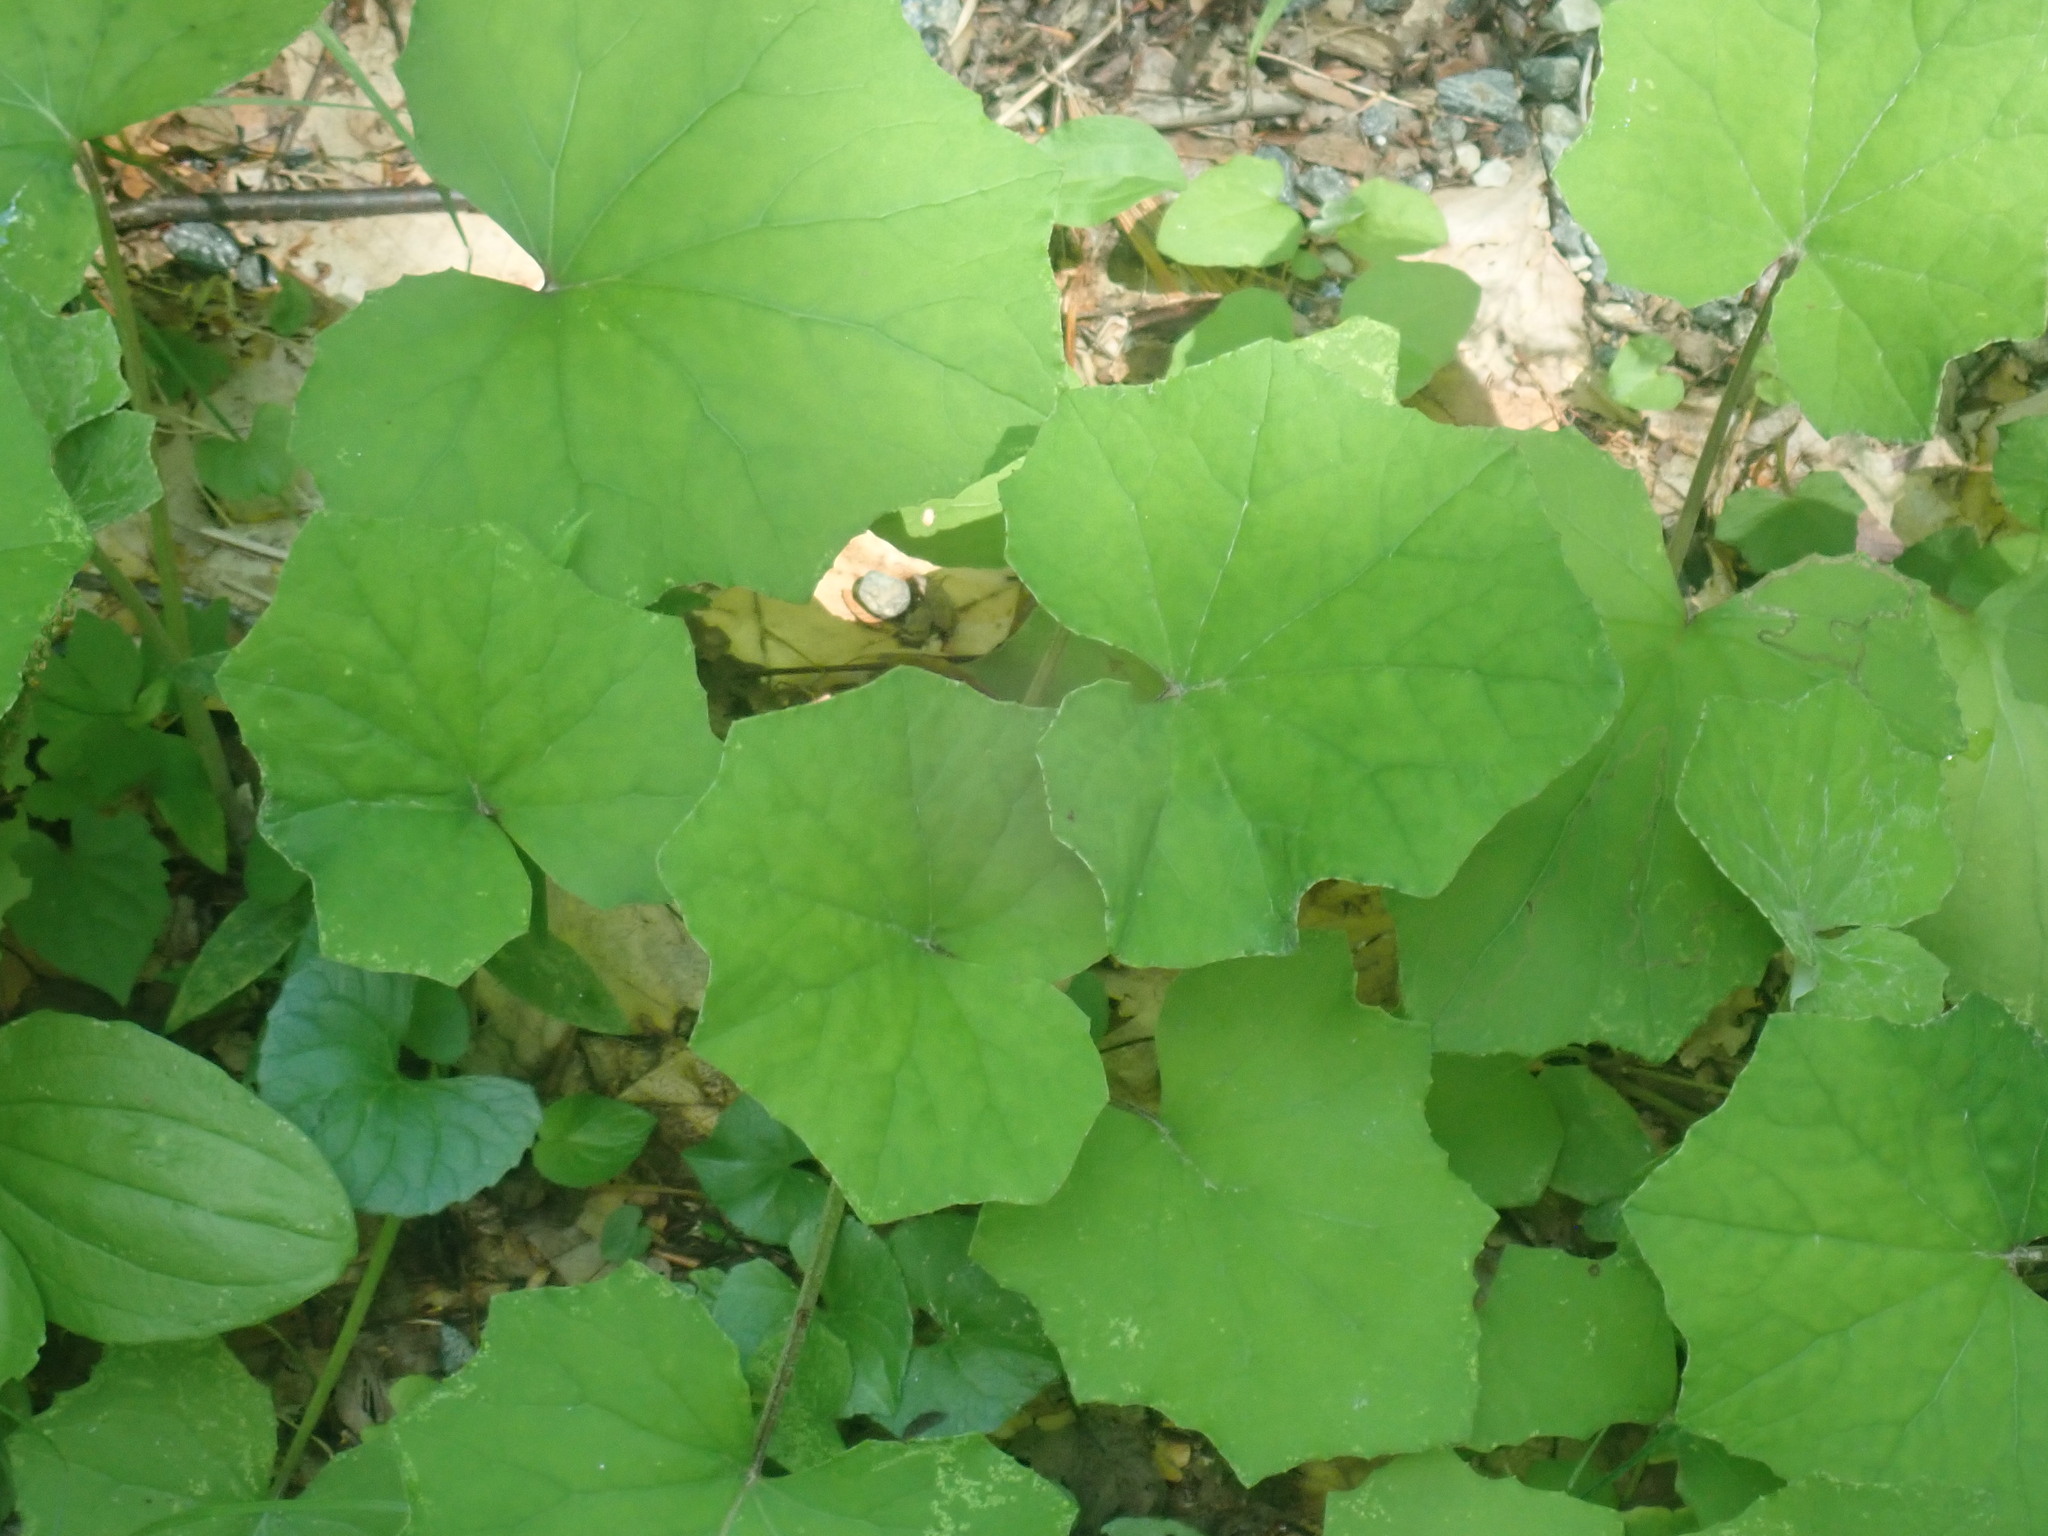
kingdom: Plantae
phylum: Tracheophyta
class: Magnoliopsida
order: Asterales
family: Asteraceae
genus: Tussilago
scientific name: Tussilago farfara
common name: Coltsfoot
